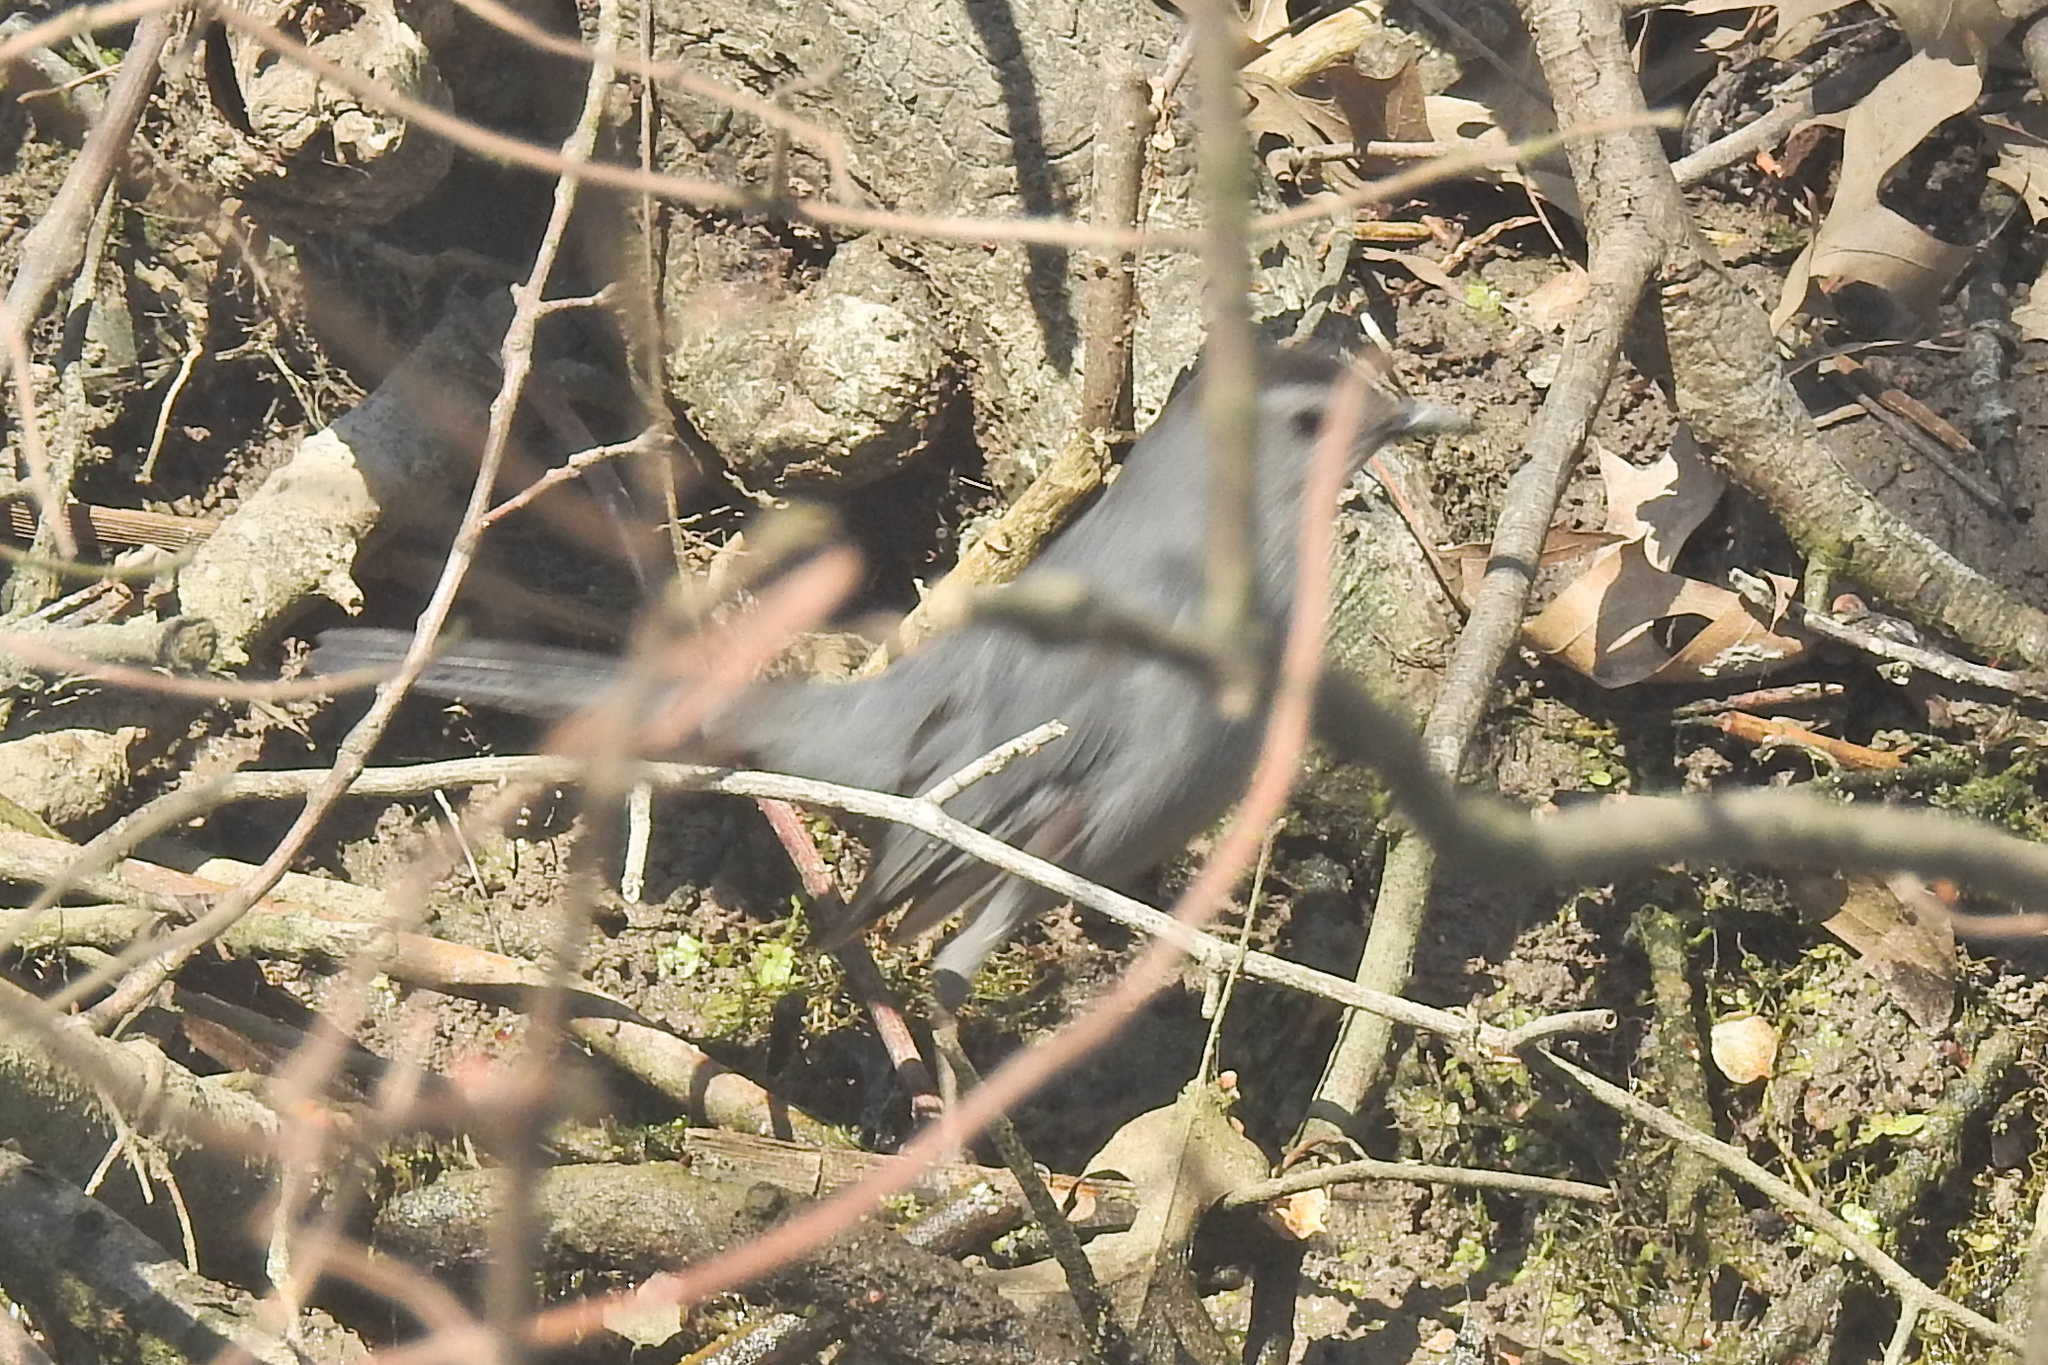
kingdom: Animalia
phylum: Chordata
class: Aves
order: Passeriformes
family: Mimidae
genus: Dumetella
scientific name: Dumetella carolinensis
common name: Gray catbird
